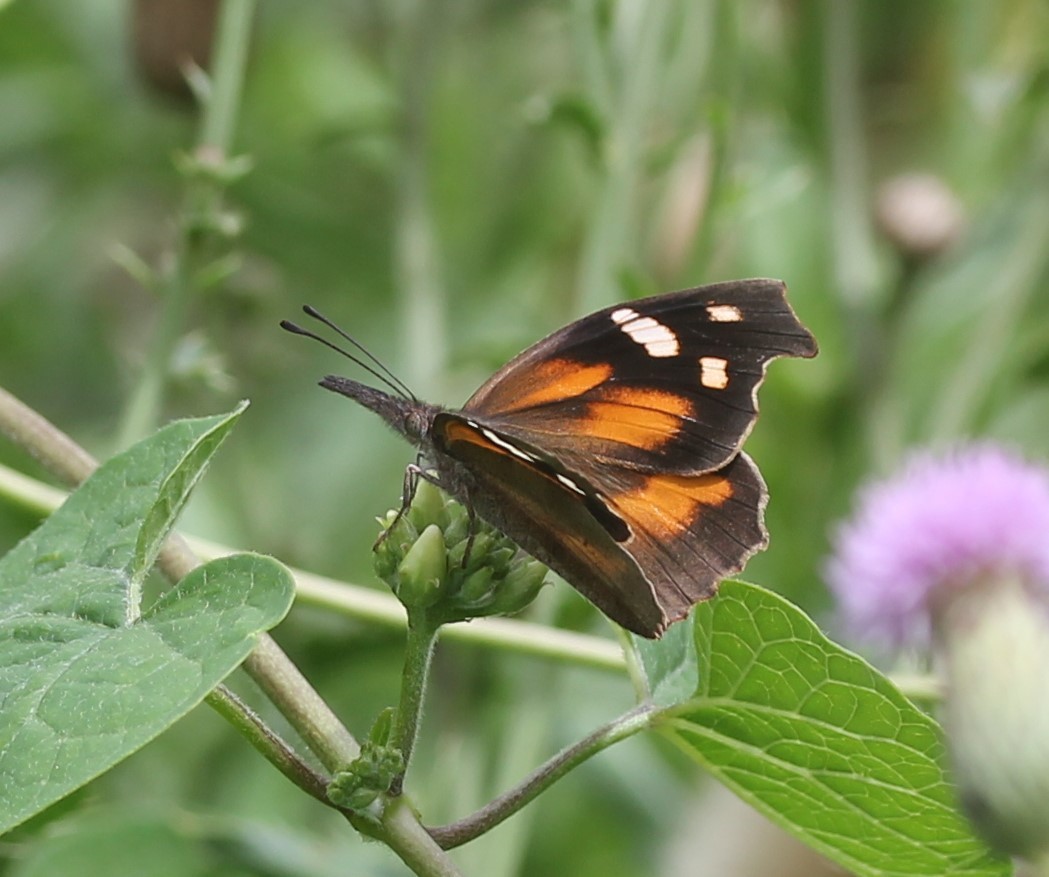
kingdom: Animalia
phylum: Arthropoda
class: Insecta
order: Lepidoptera
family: Nymphalidae
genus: Libytheana
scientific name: Libytheana carinenta
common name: American snout
